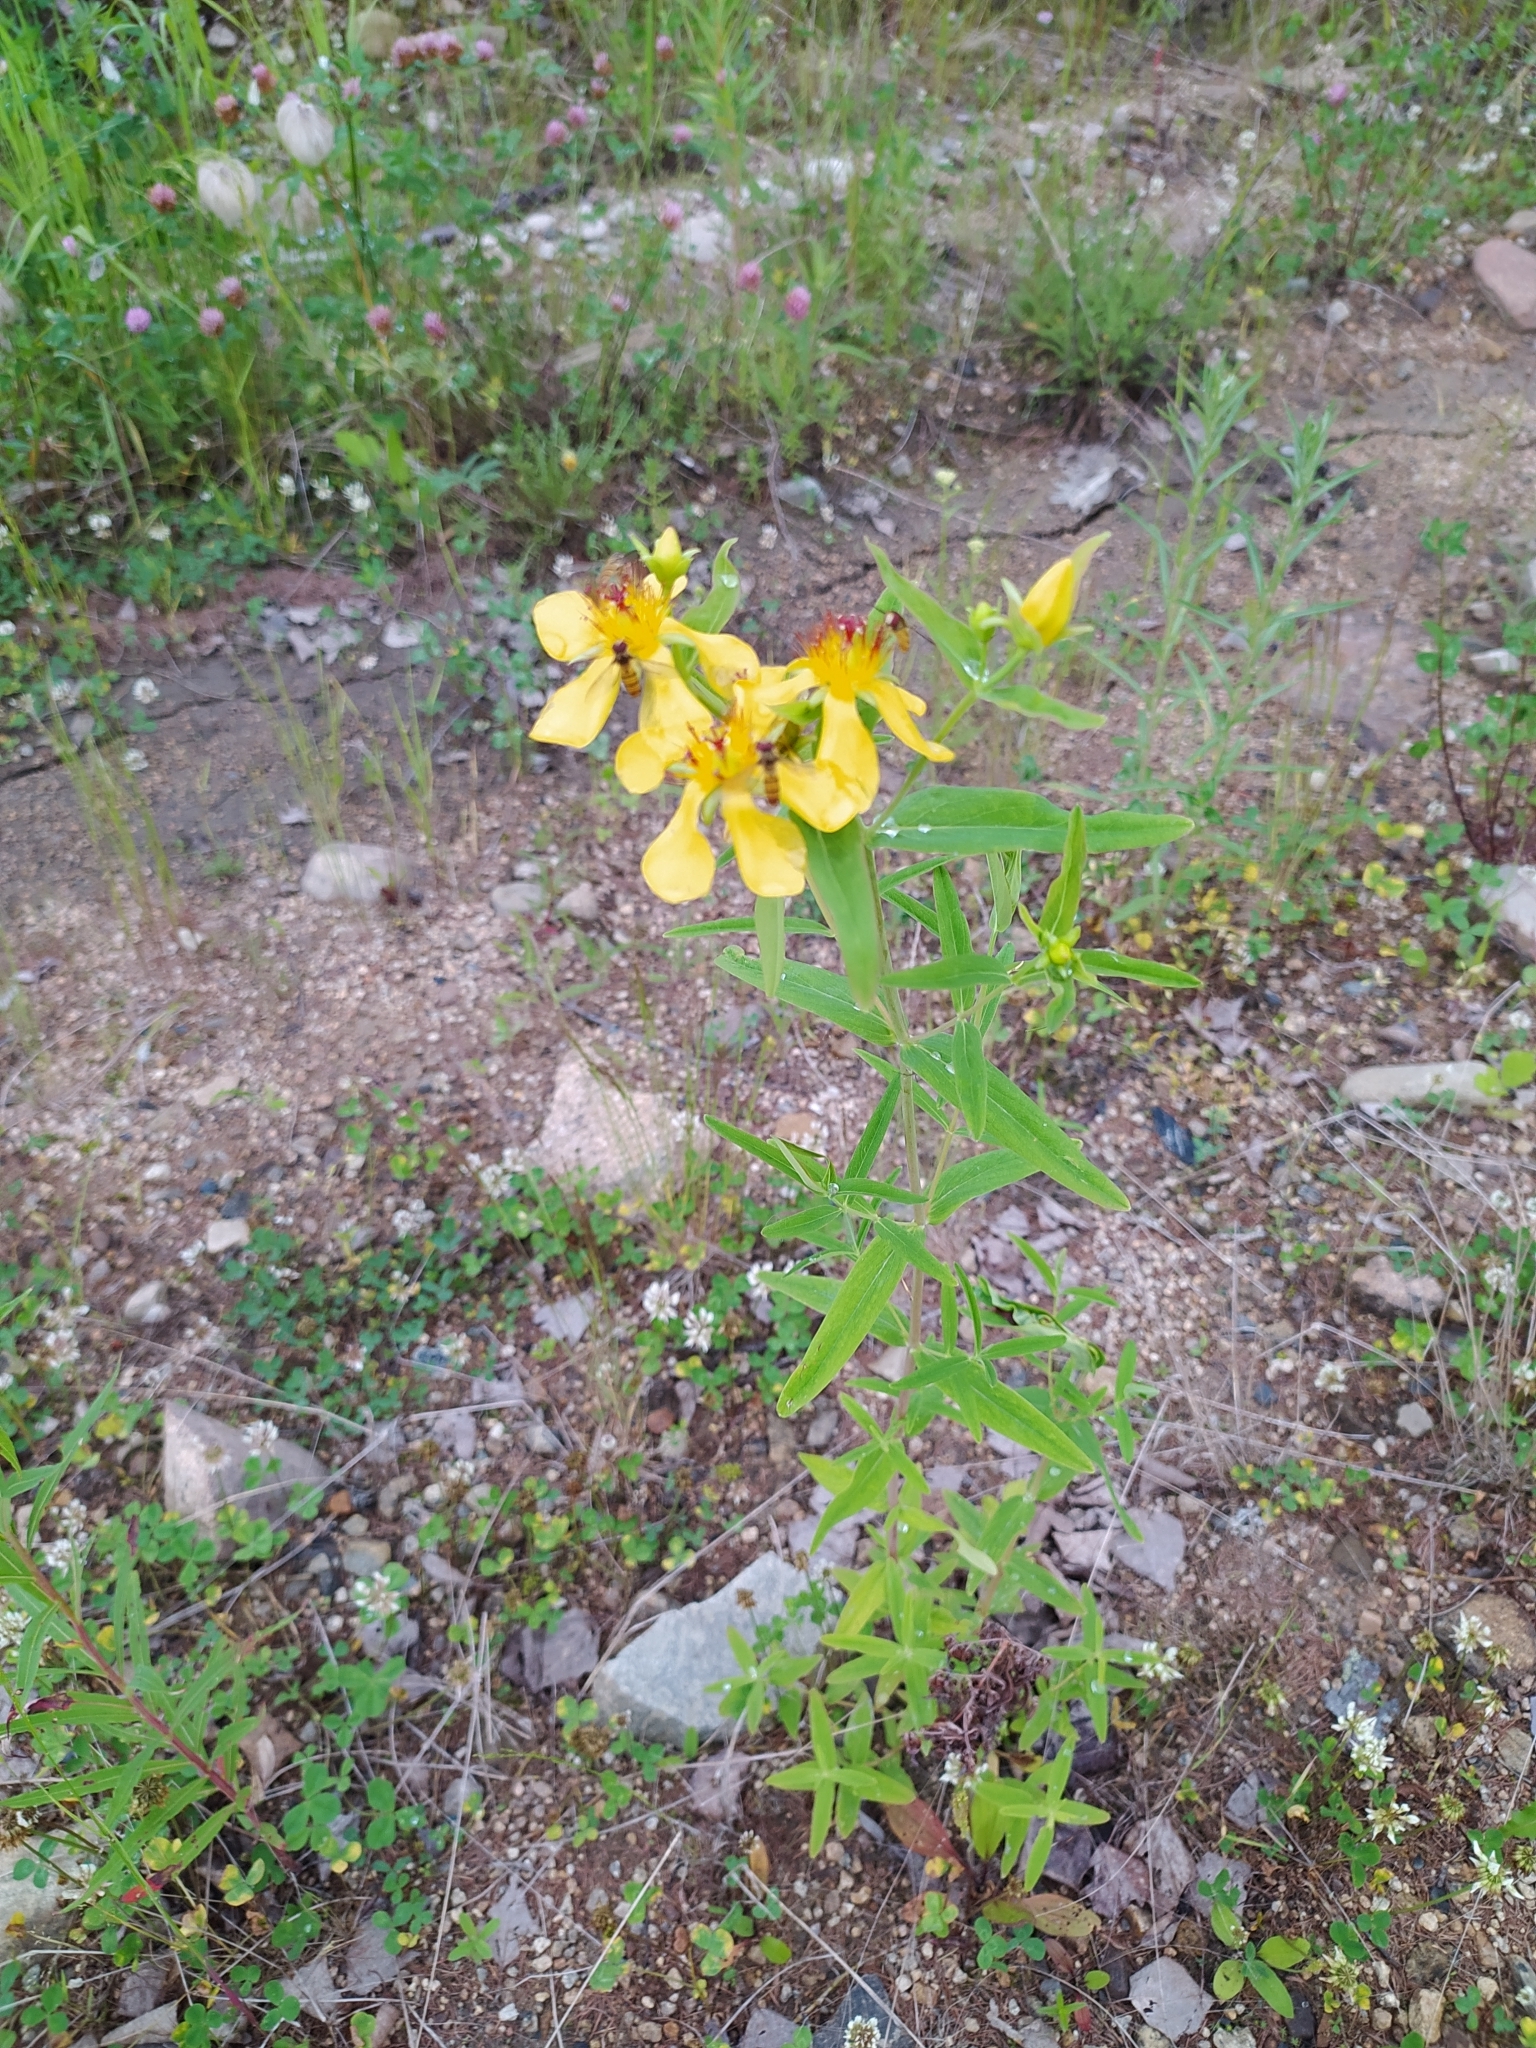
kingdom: Plantae
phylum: Tracheophyta
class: Magnoliopsida
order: Malpighiales
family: Hypericaceae
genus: Hypericum
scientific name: Hypericum ascyron
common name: Giant st. john's-wort
